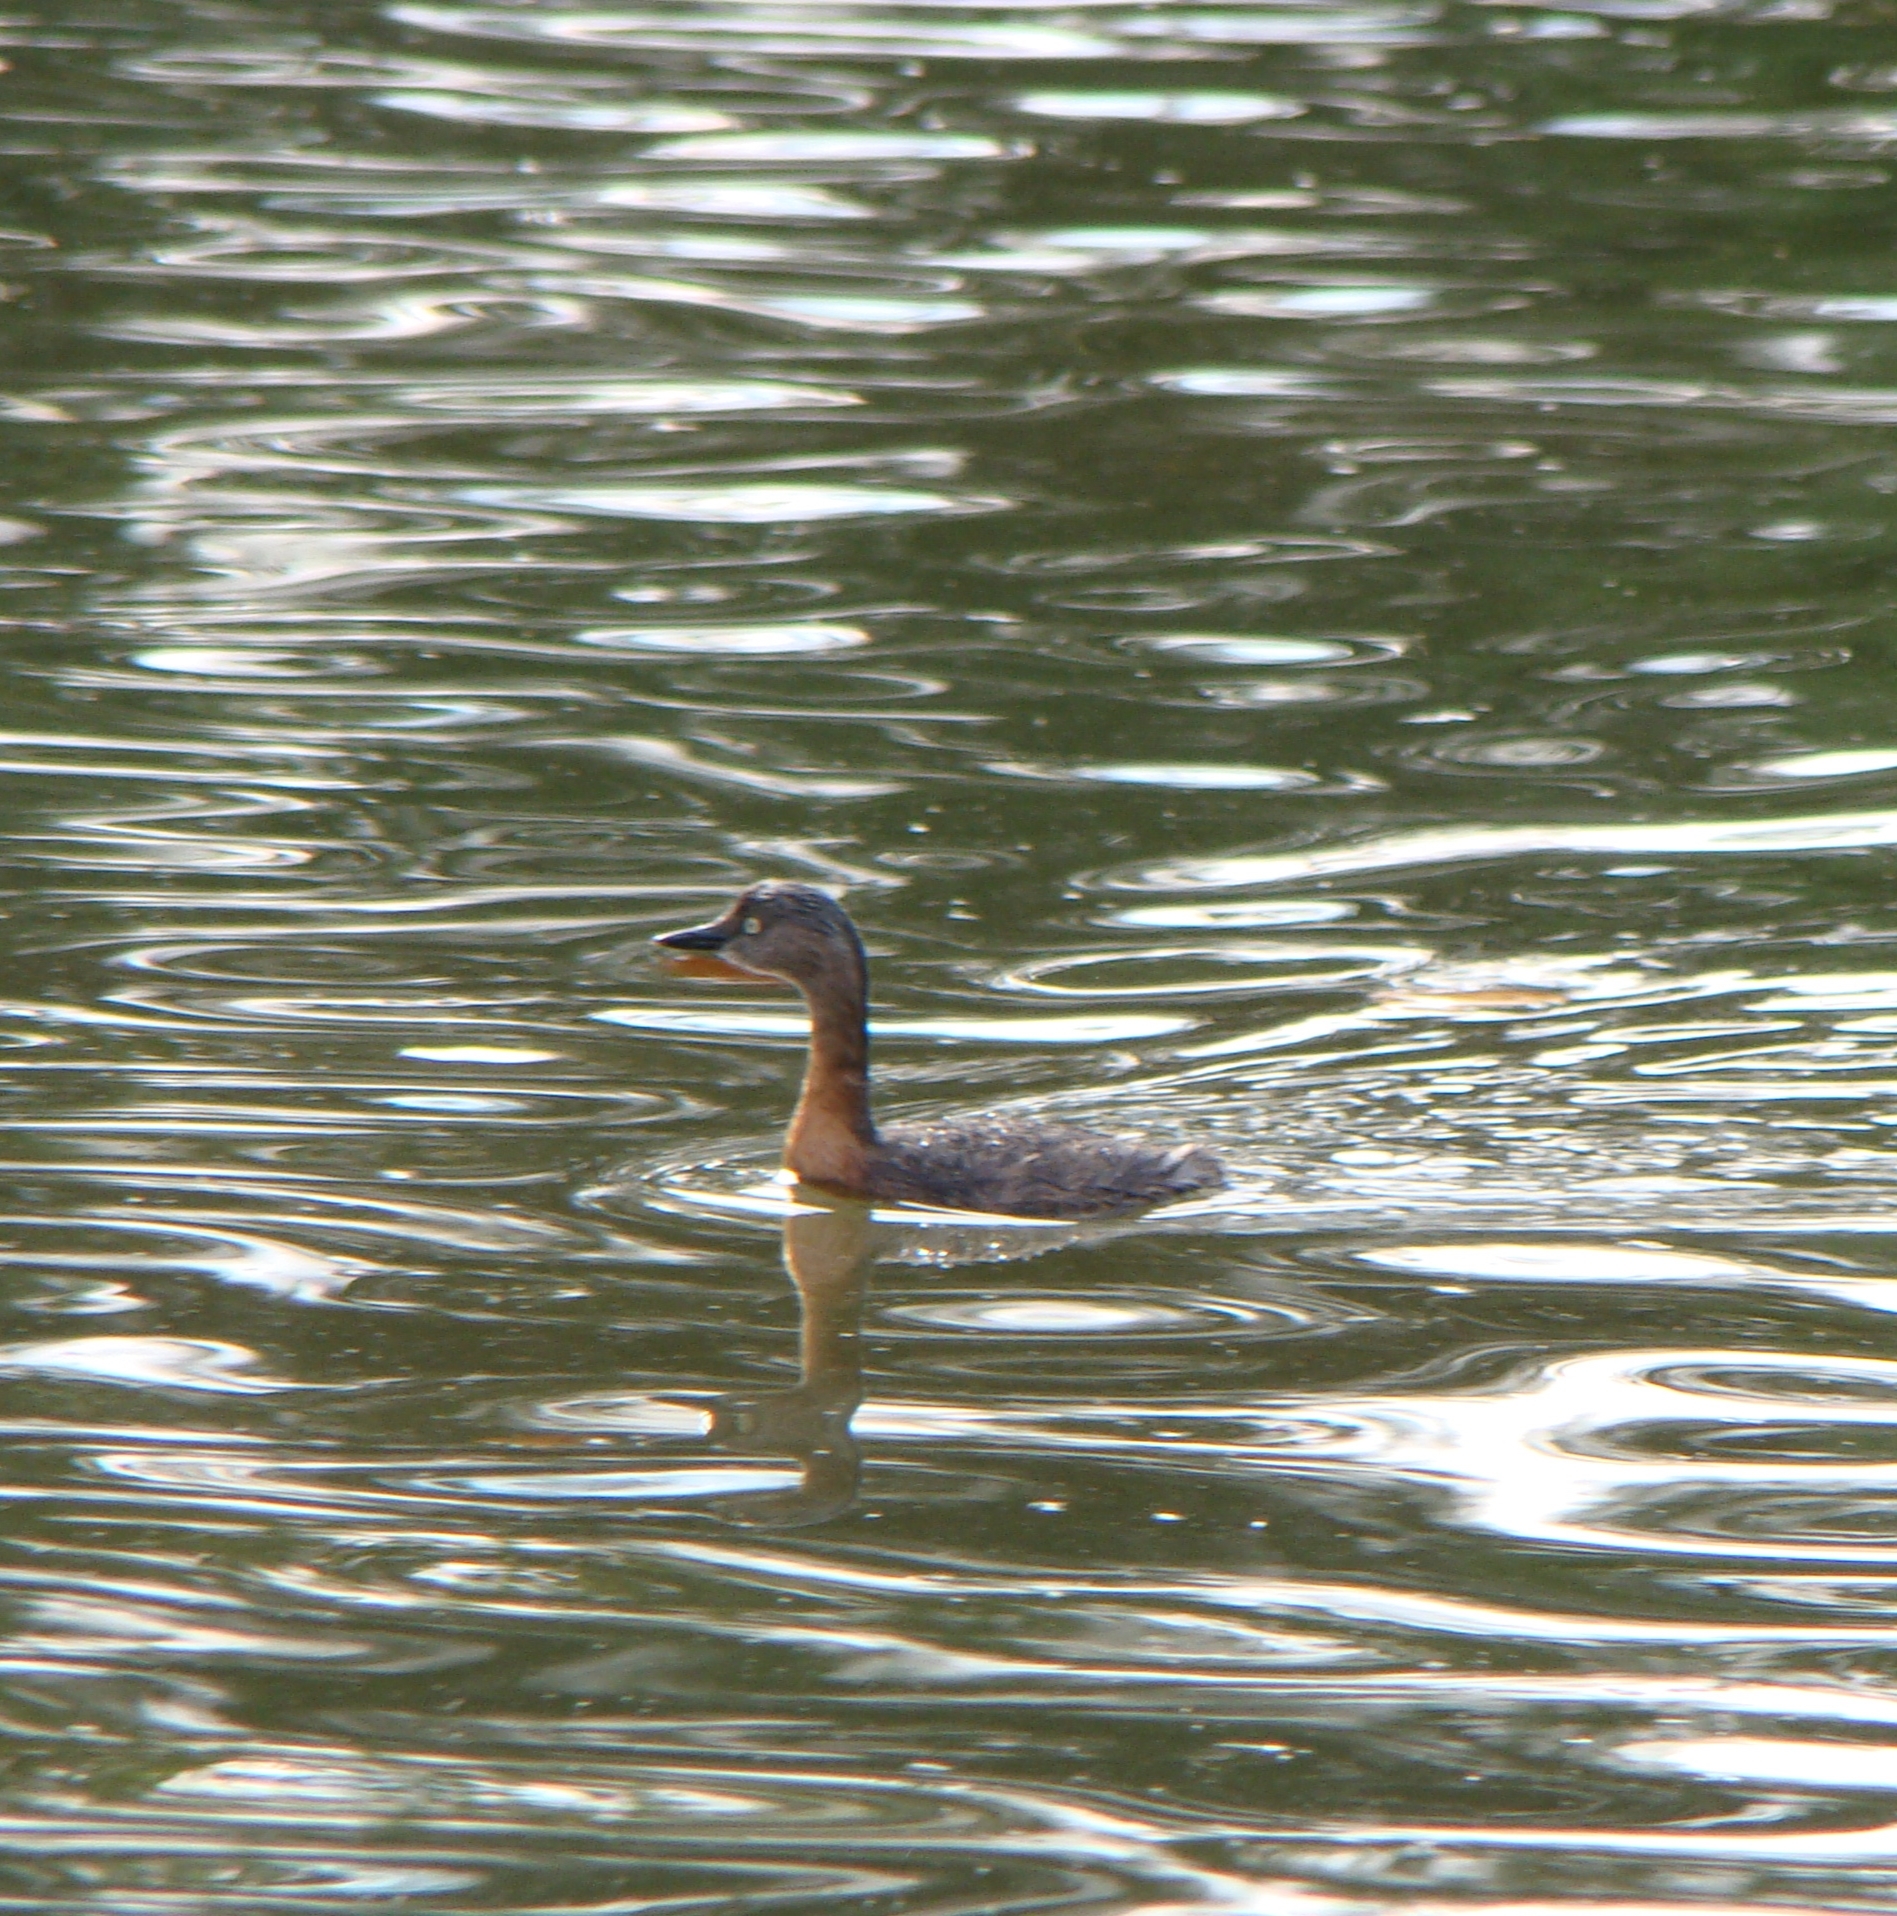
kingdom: Animalia
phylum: Chordata
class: Aves
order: Podicipediformes
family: Podicipedidae
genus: Poliocephalus
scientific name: Poliocephalus rufopectus
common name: New zealand grebe
